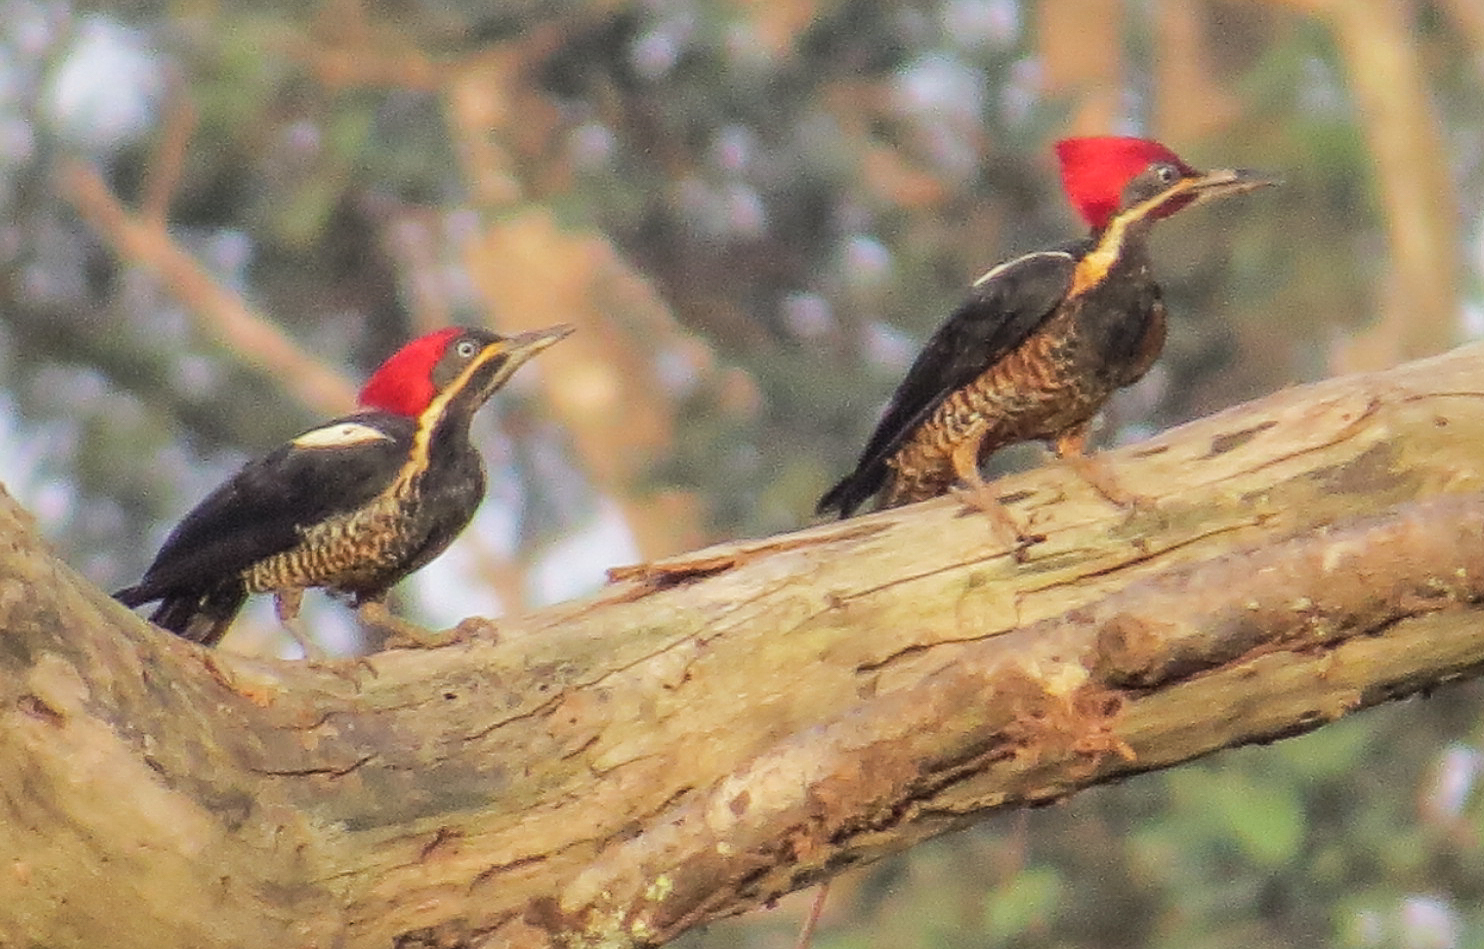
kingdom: Animalia
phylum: Chordata
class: Aves
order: Piciformes
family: Picidae
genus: Dryocopus
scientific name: Dryocopus lineatus
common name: Lineated woodpecker
